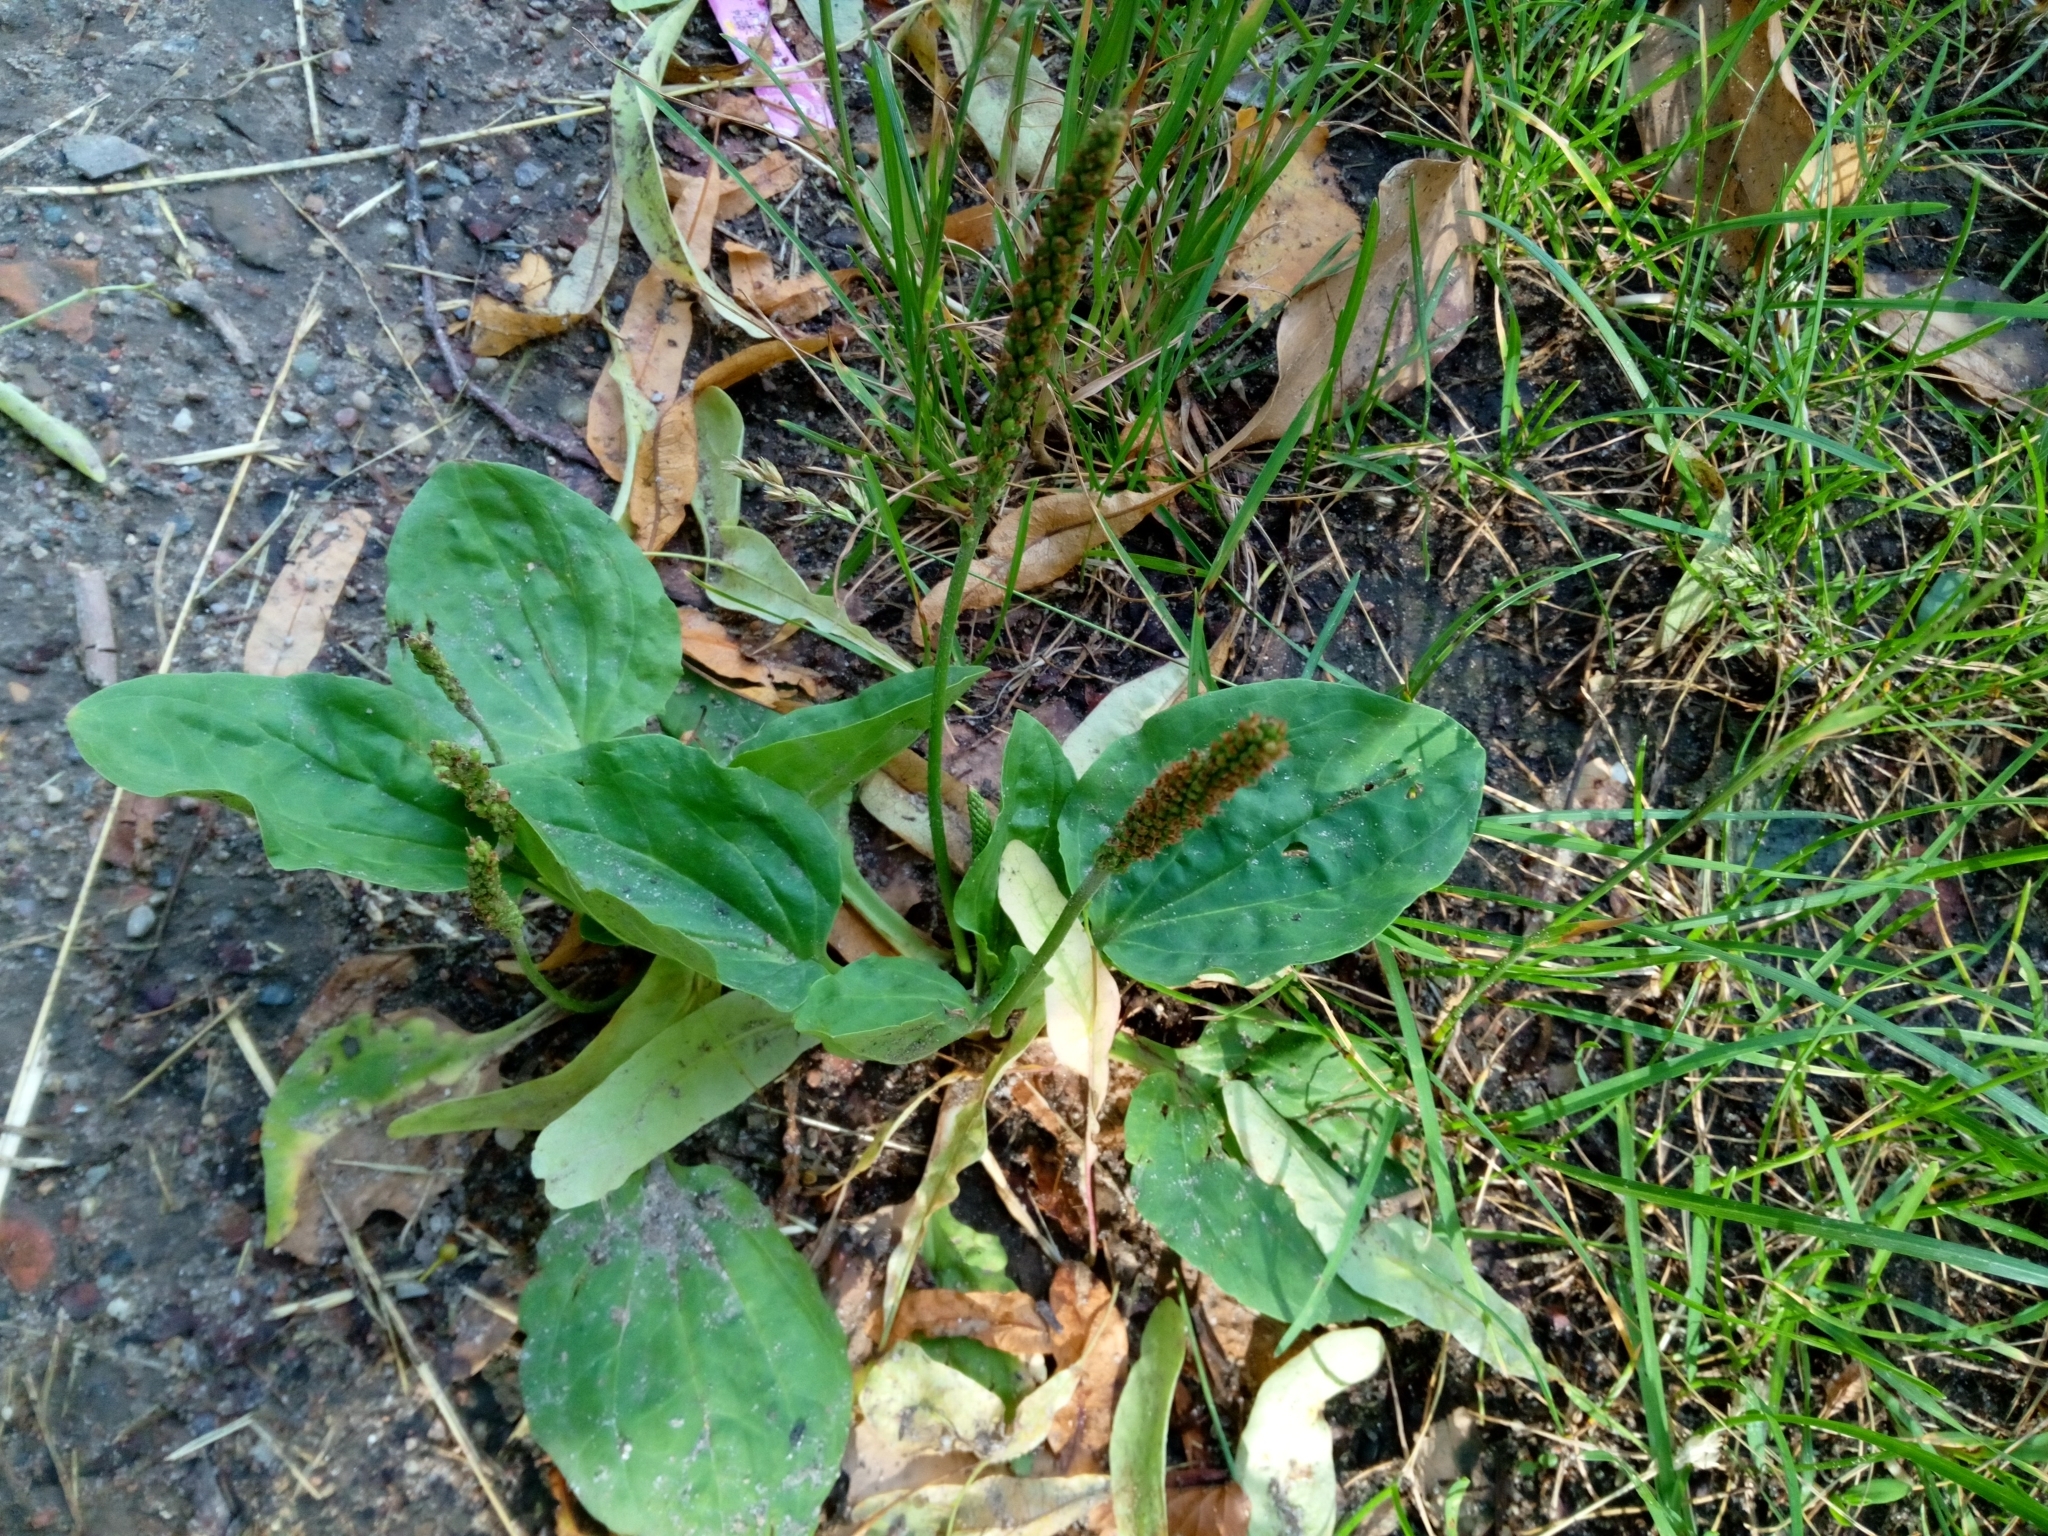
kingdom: Plantae
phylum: Tracheophyta
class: Magnoliopsida
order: Lamiales
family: Plantaginaceae
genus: Plantago
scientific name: Plantago major
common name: Common plantain
